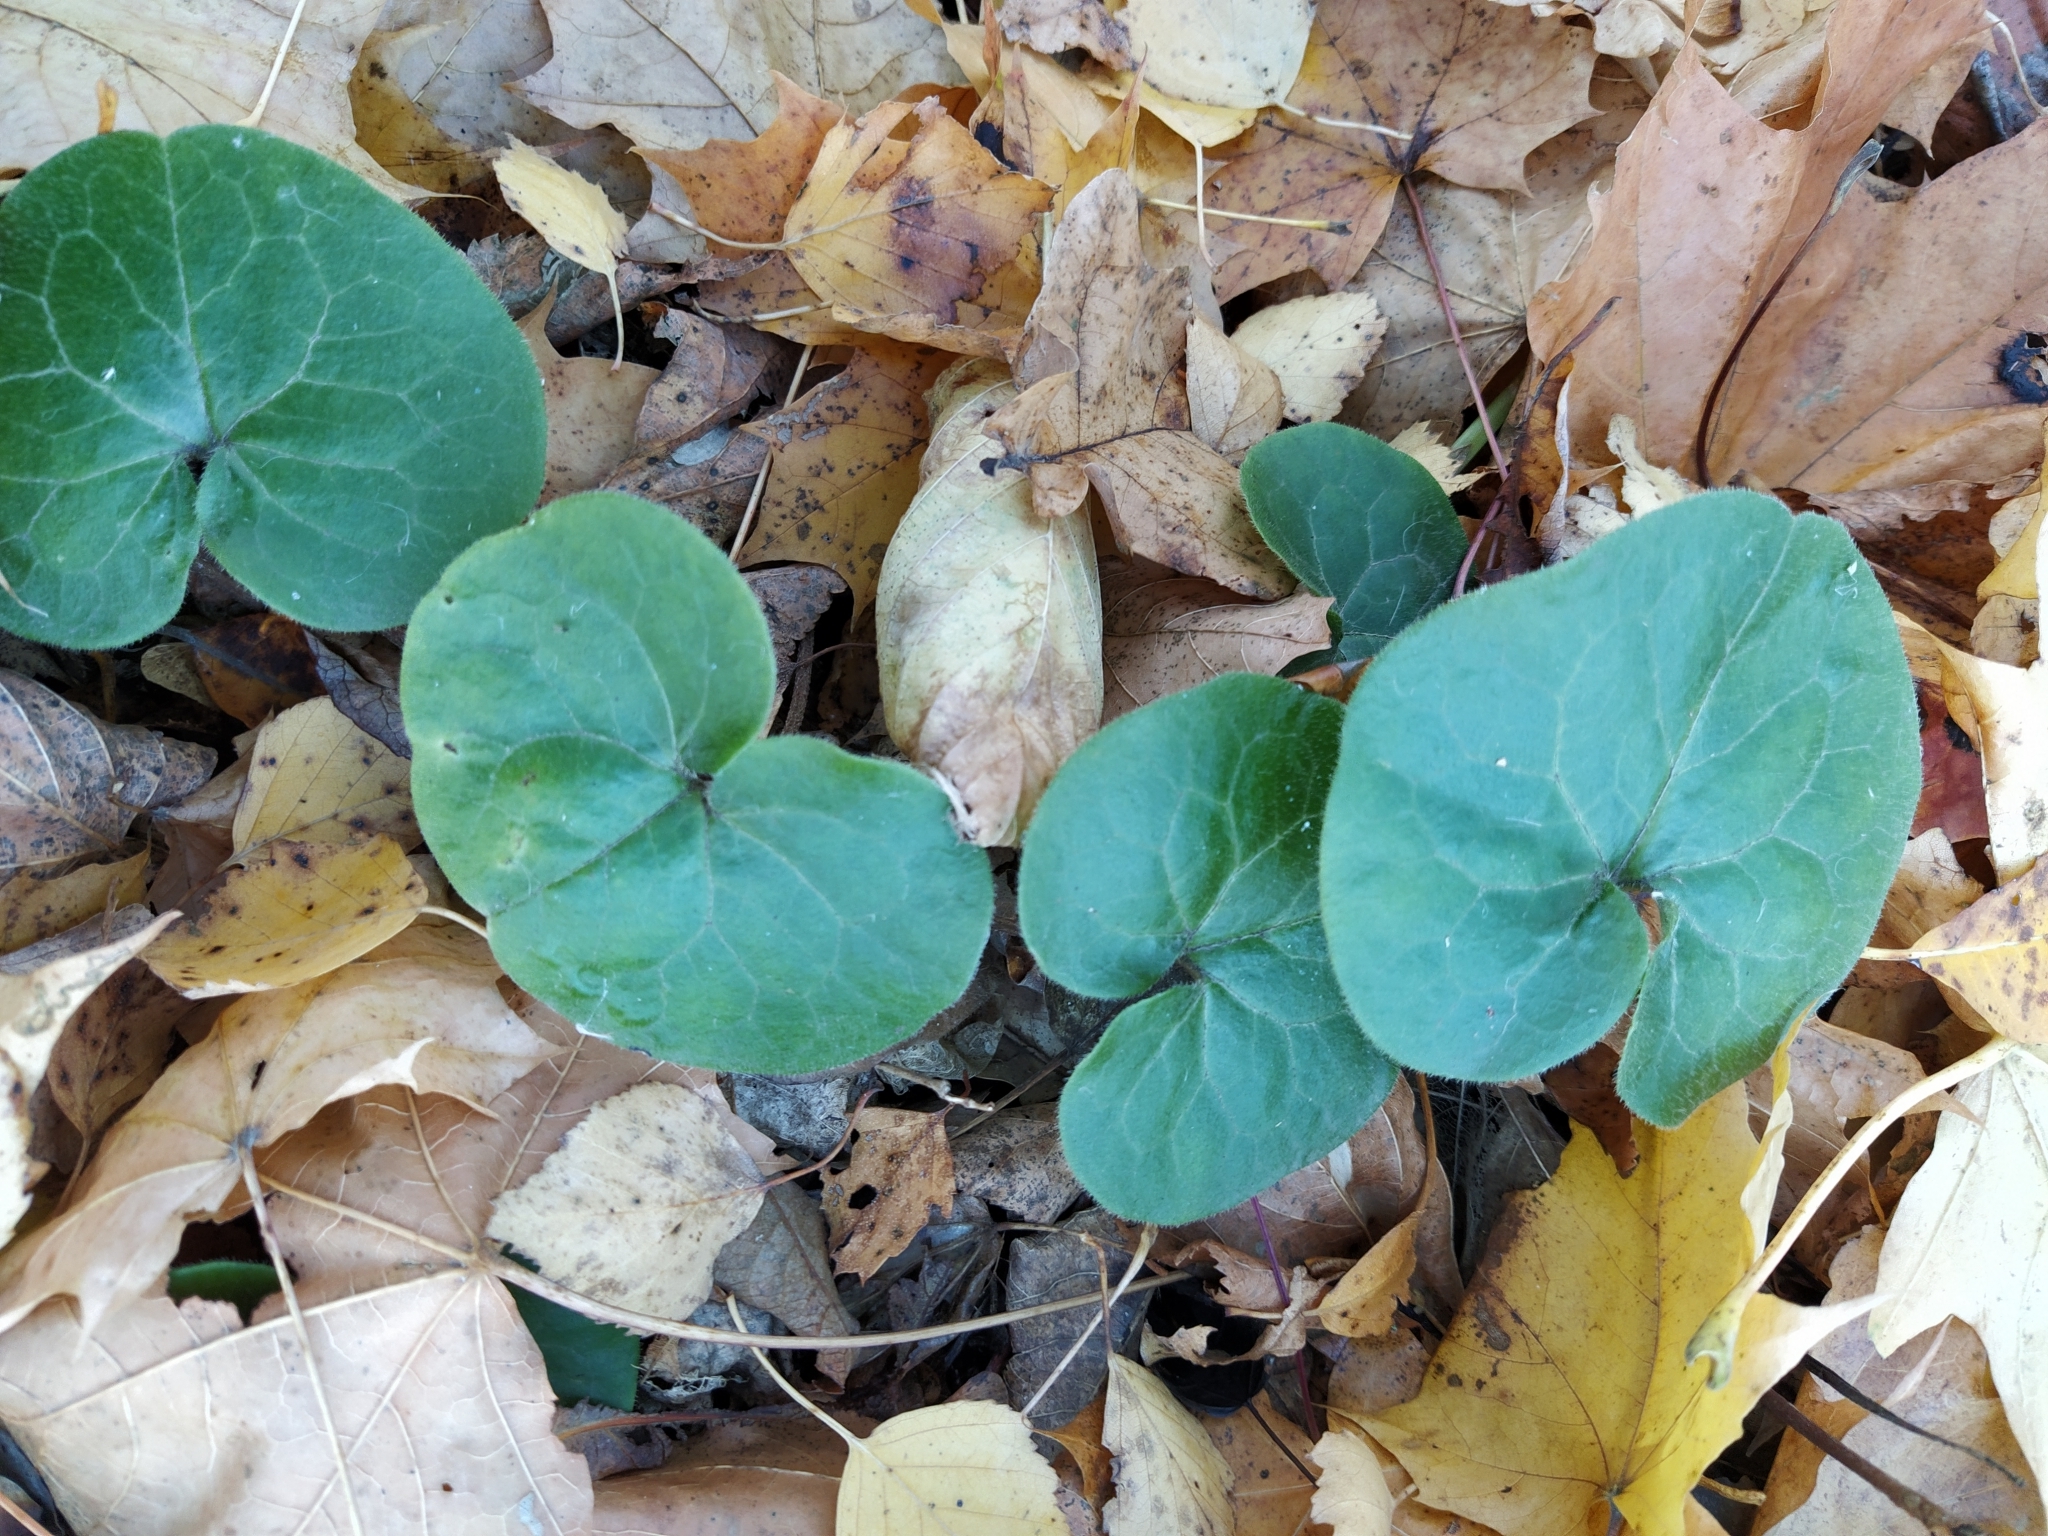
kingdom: Plantae
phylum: Tracheophyta
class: Magnoliopsida
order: Piperales
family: Aristolochiaceae
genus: Asarum
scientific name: Asarum europaeum
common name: Asarabacca
